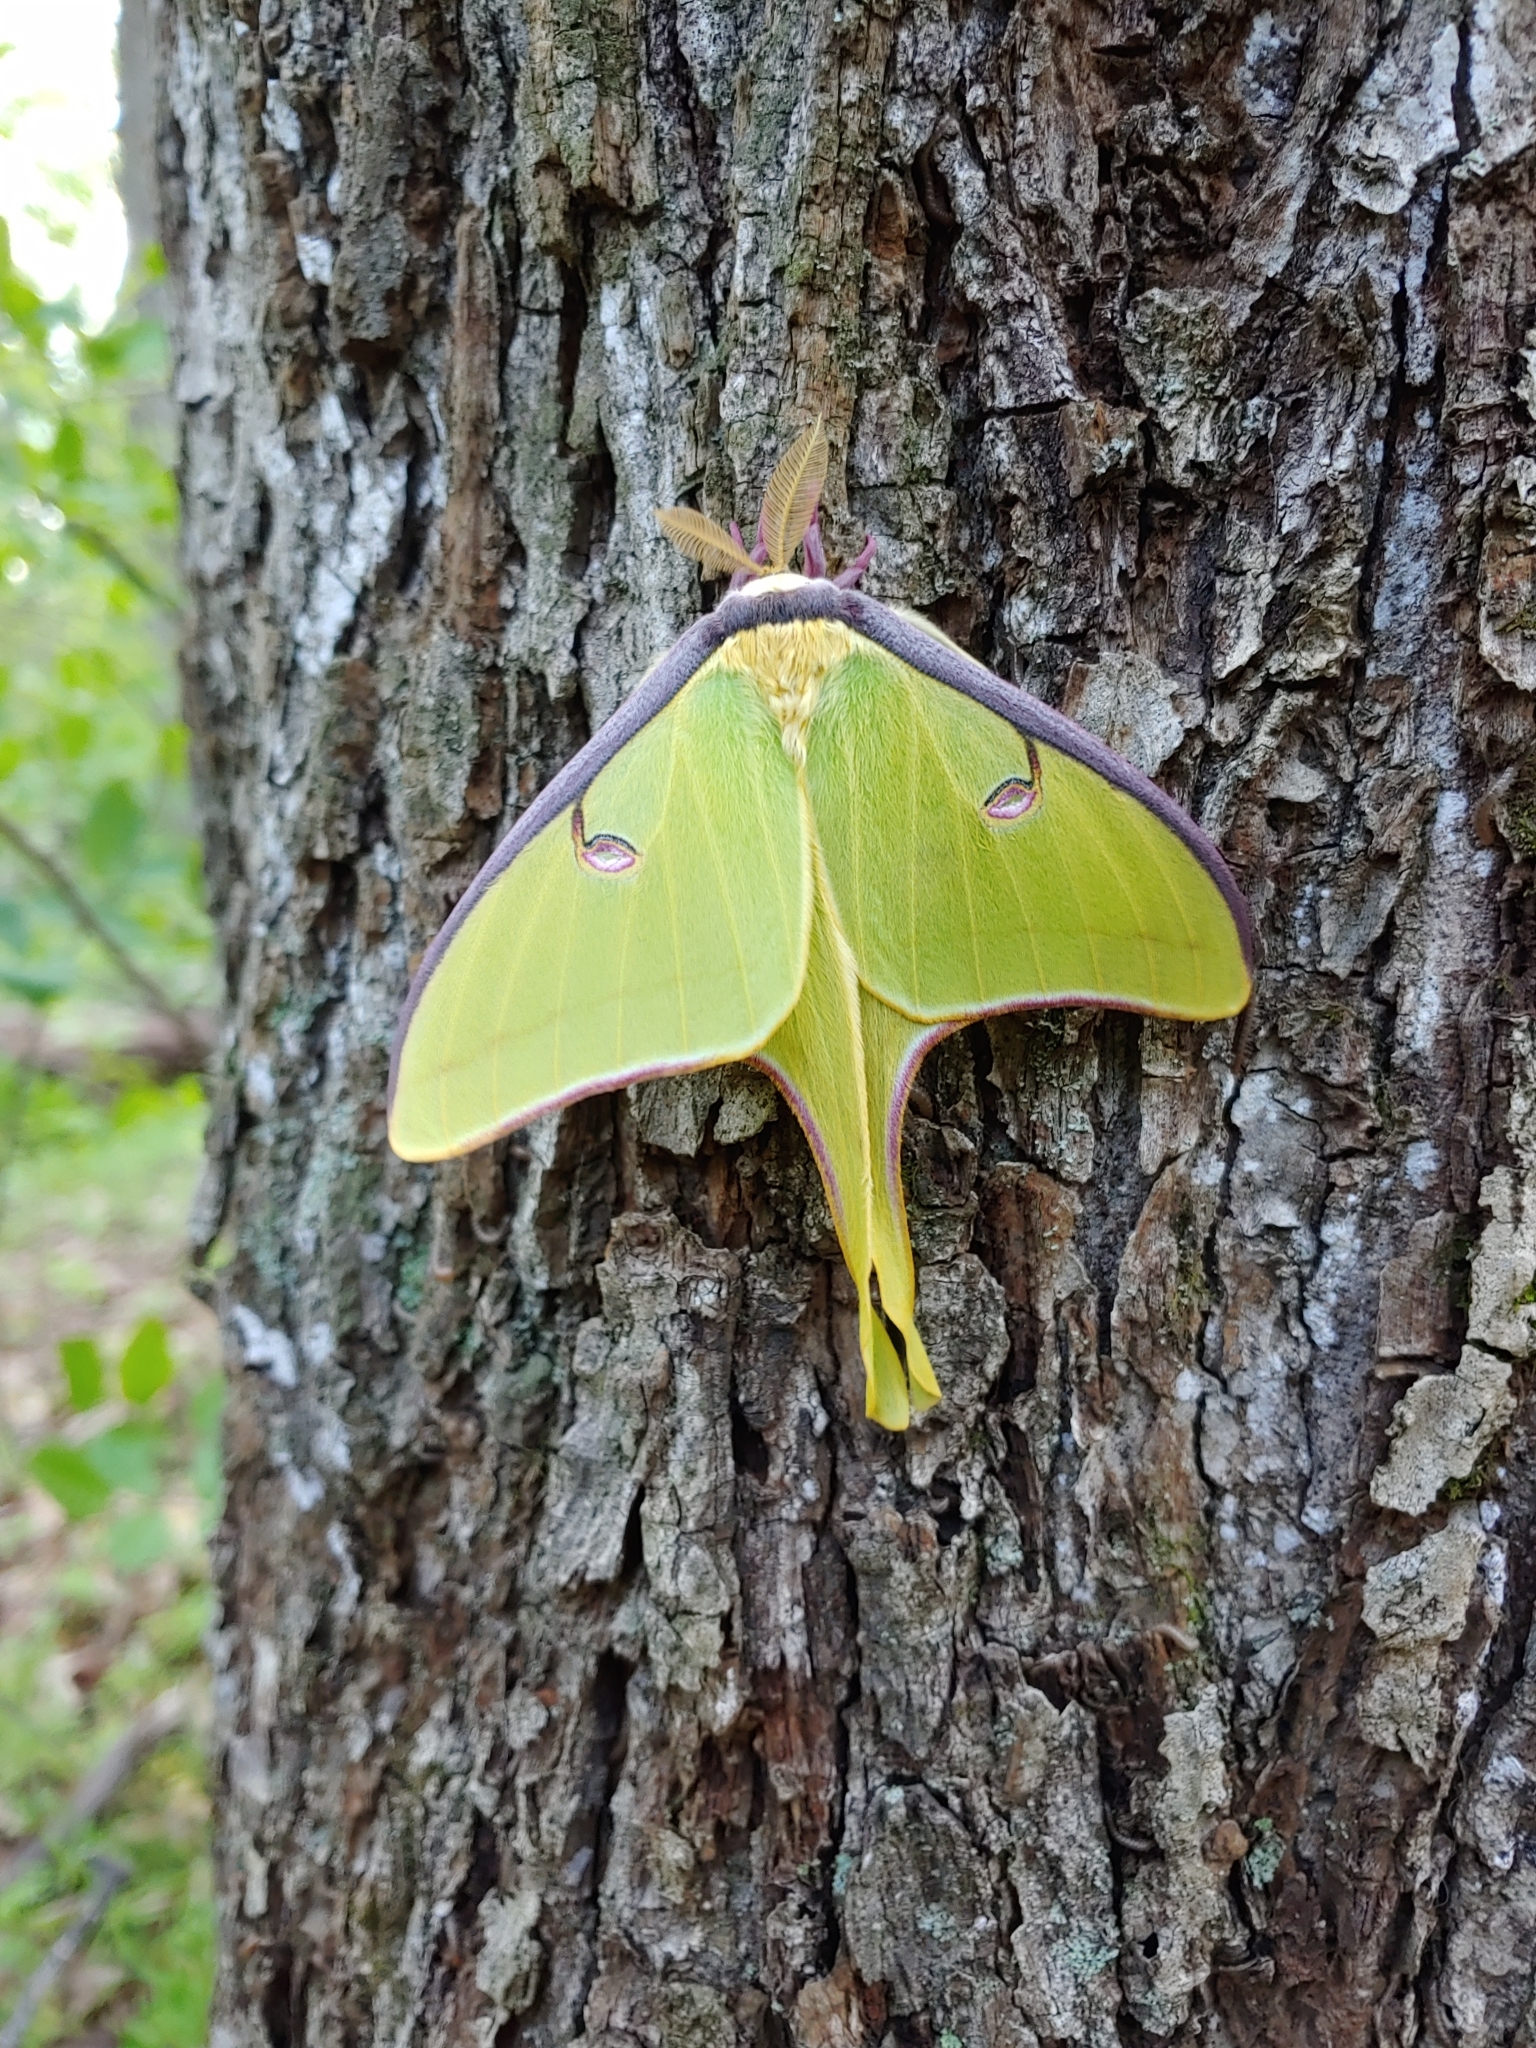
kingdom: Animalia
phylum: Arthropoda
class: Insecta
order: Lepidoptera
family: Saturniidae
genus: Actias
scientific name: Actias luna
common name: Luna moth
